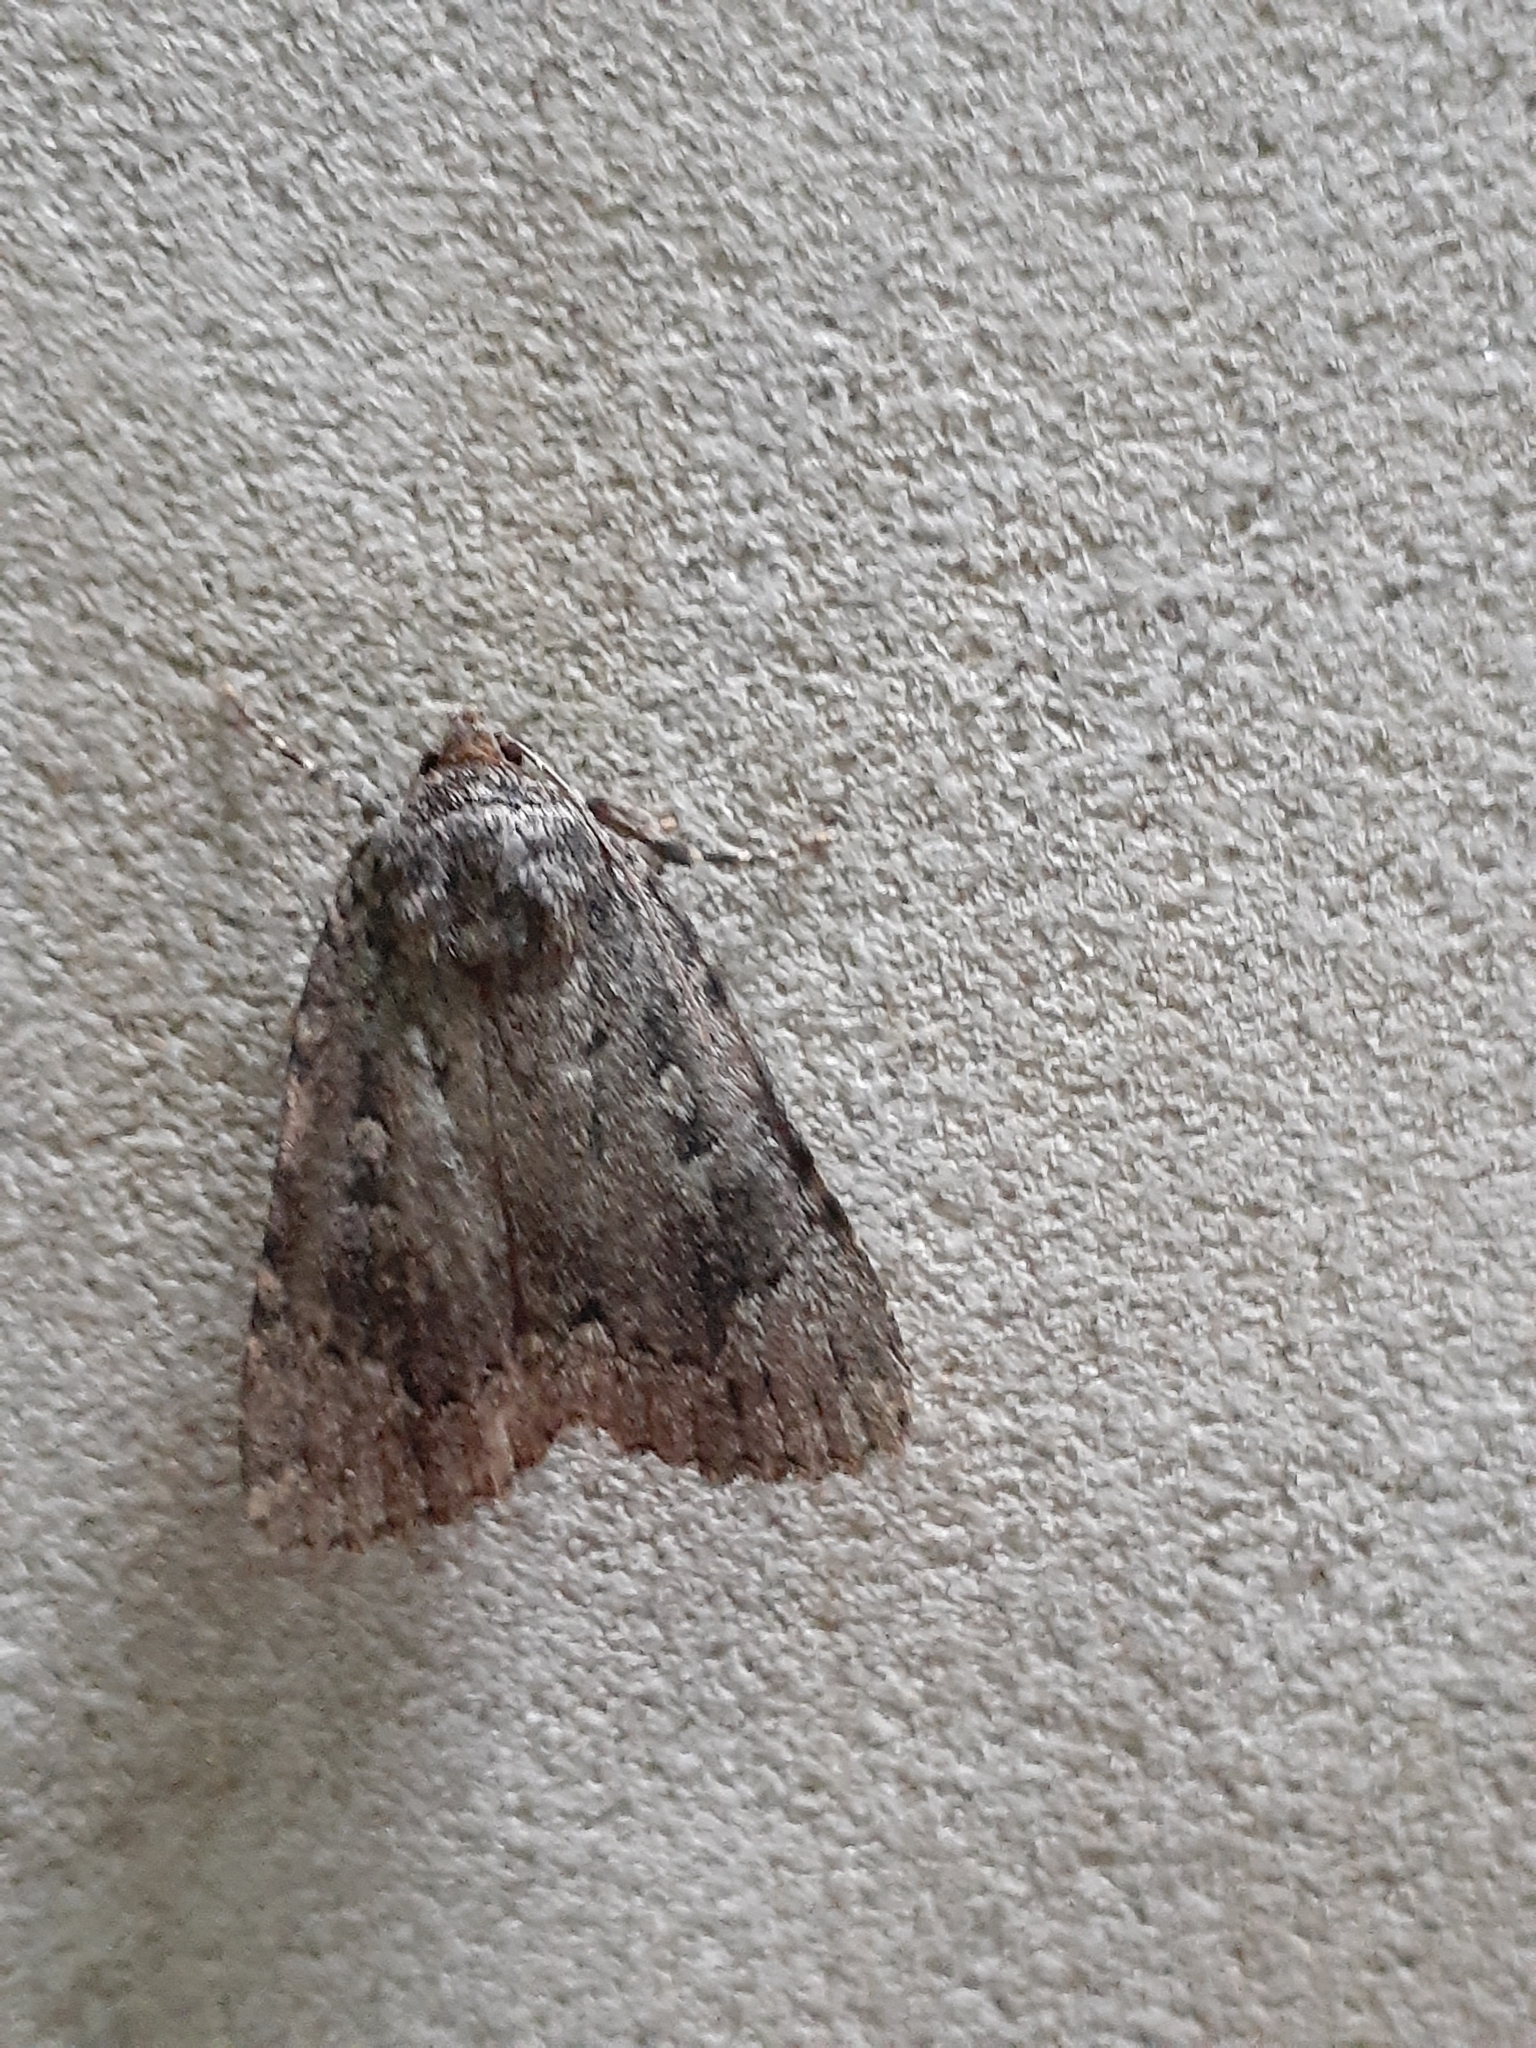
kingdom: Animalia
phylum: Arthropoda
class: Insecta
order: Lepidoptera
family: Noctuidae
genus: Amphipyra
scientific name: Amphipyra pyramidoides
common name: American copper underwing
